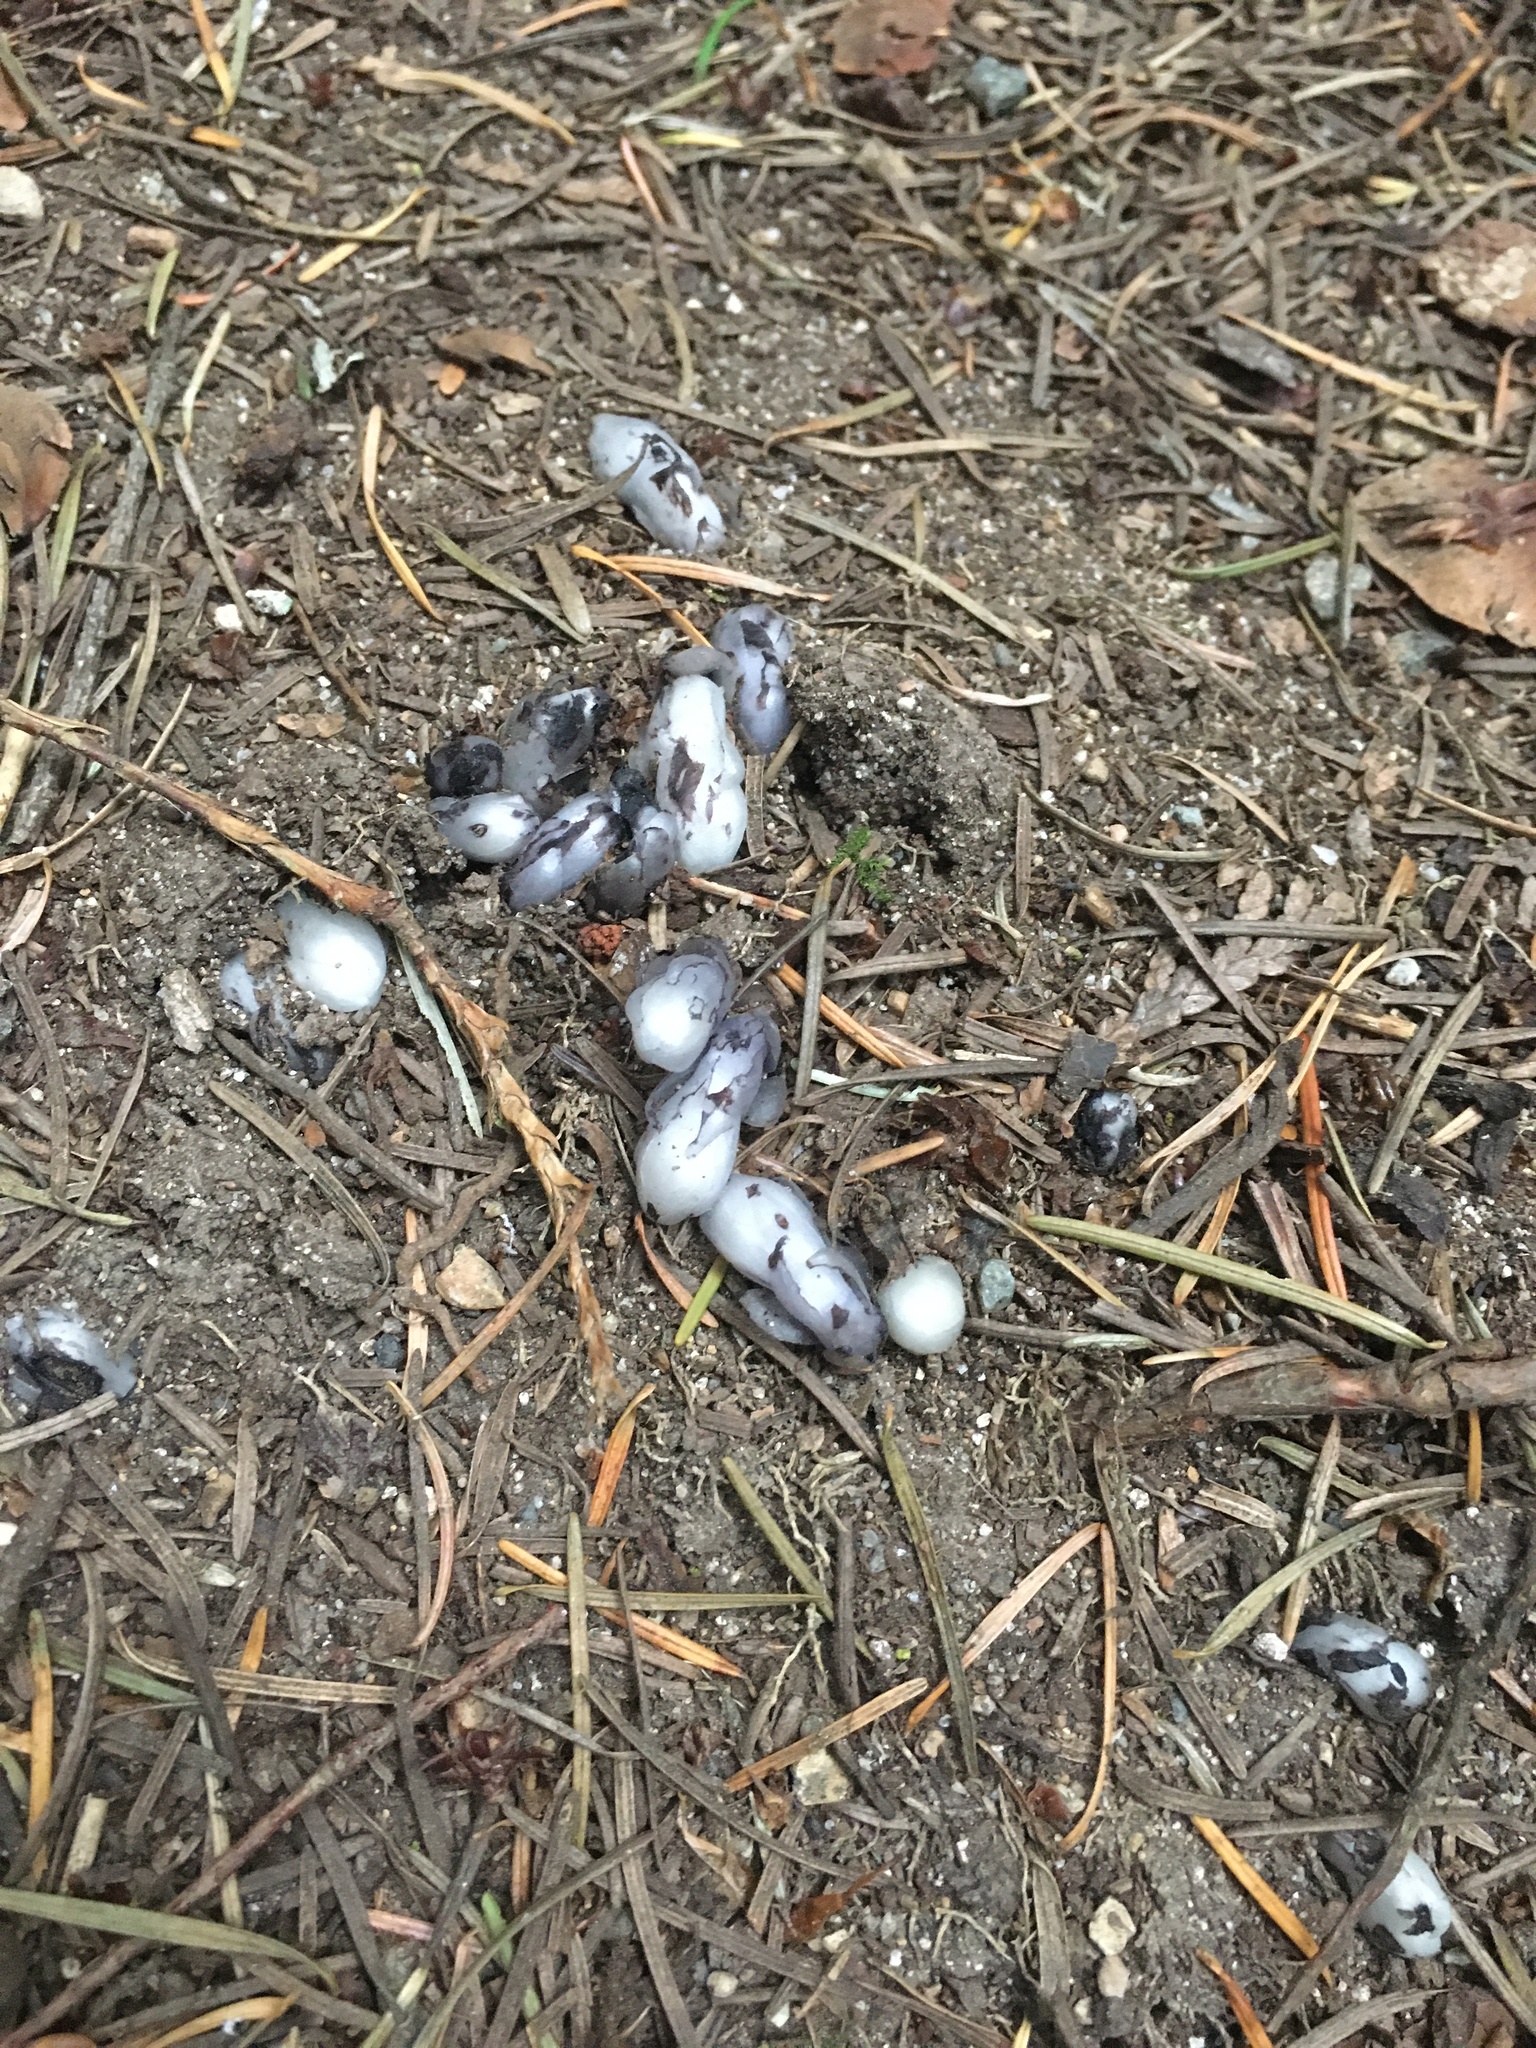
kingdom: Plantae
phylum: Tracheophyta
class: Magnoliopsida
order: Ericales
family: Ericaceae
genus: Monotropa
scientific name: Monotropa uniflora
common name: Convulsion root
